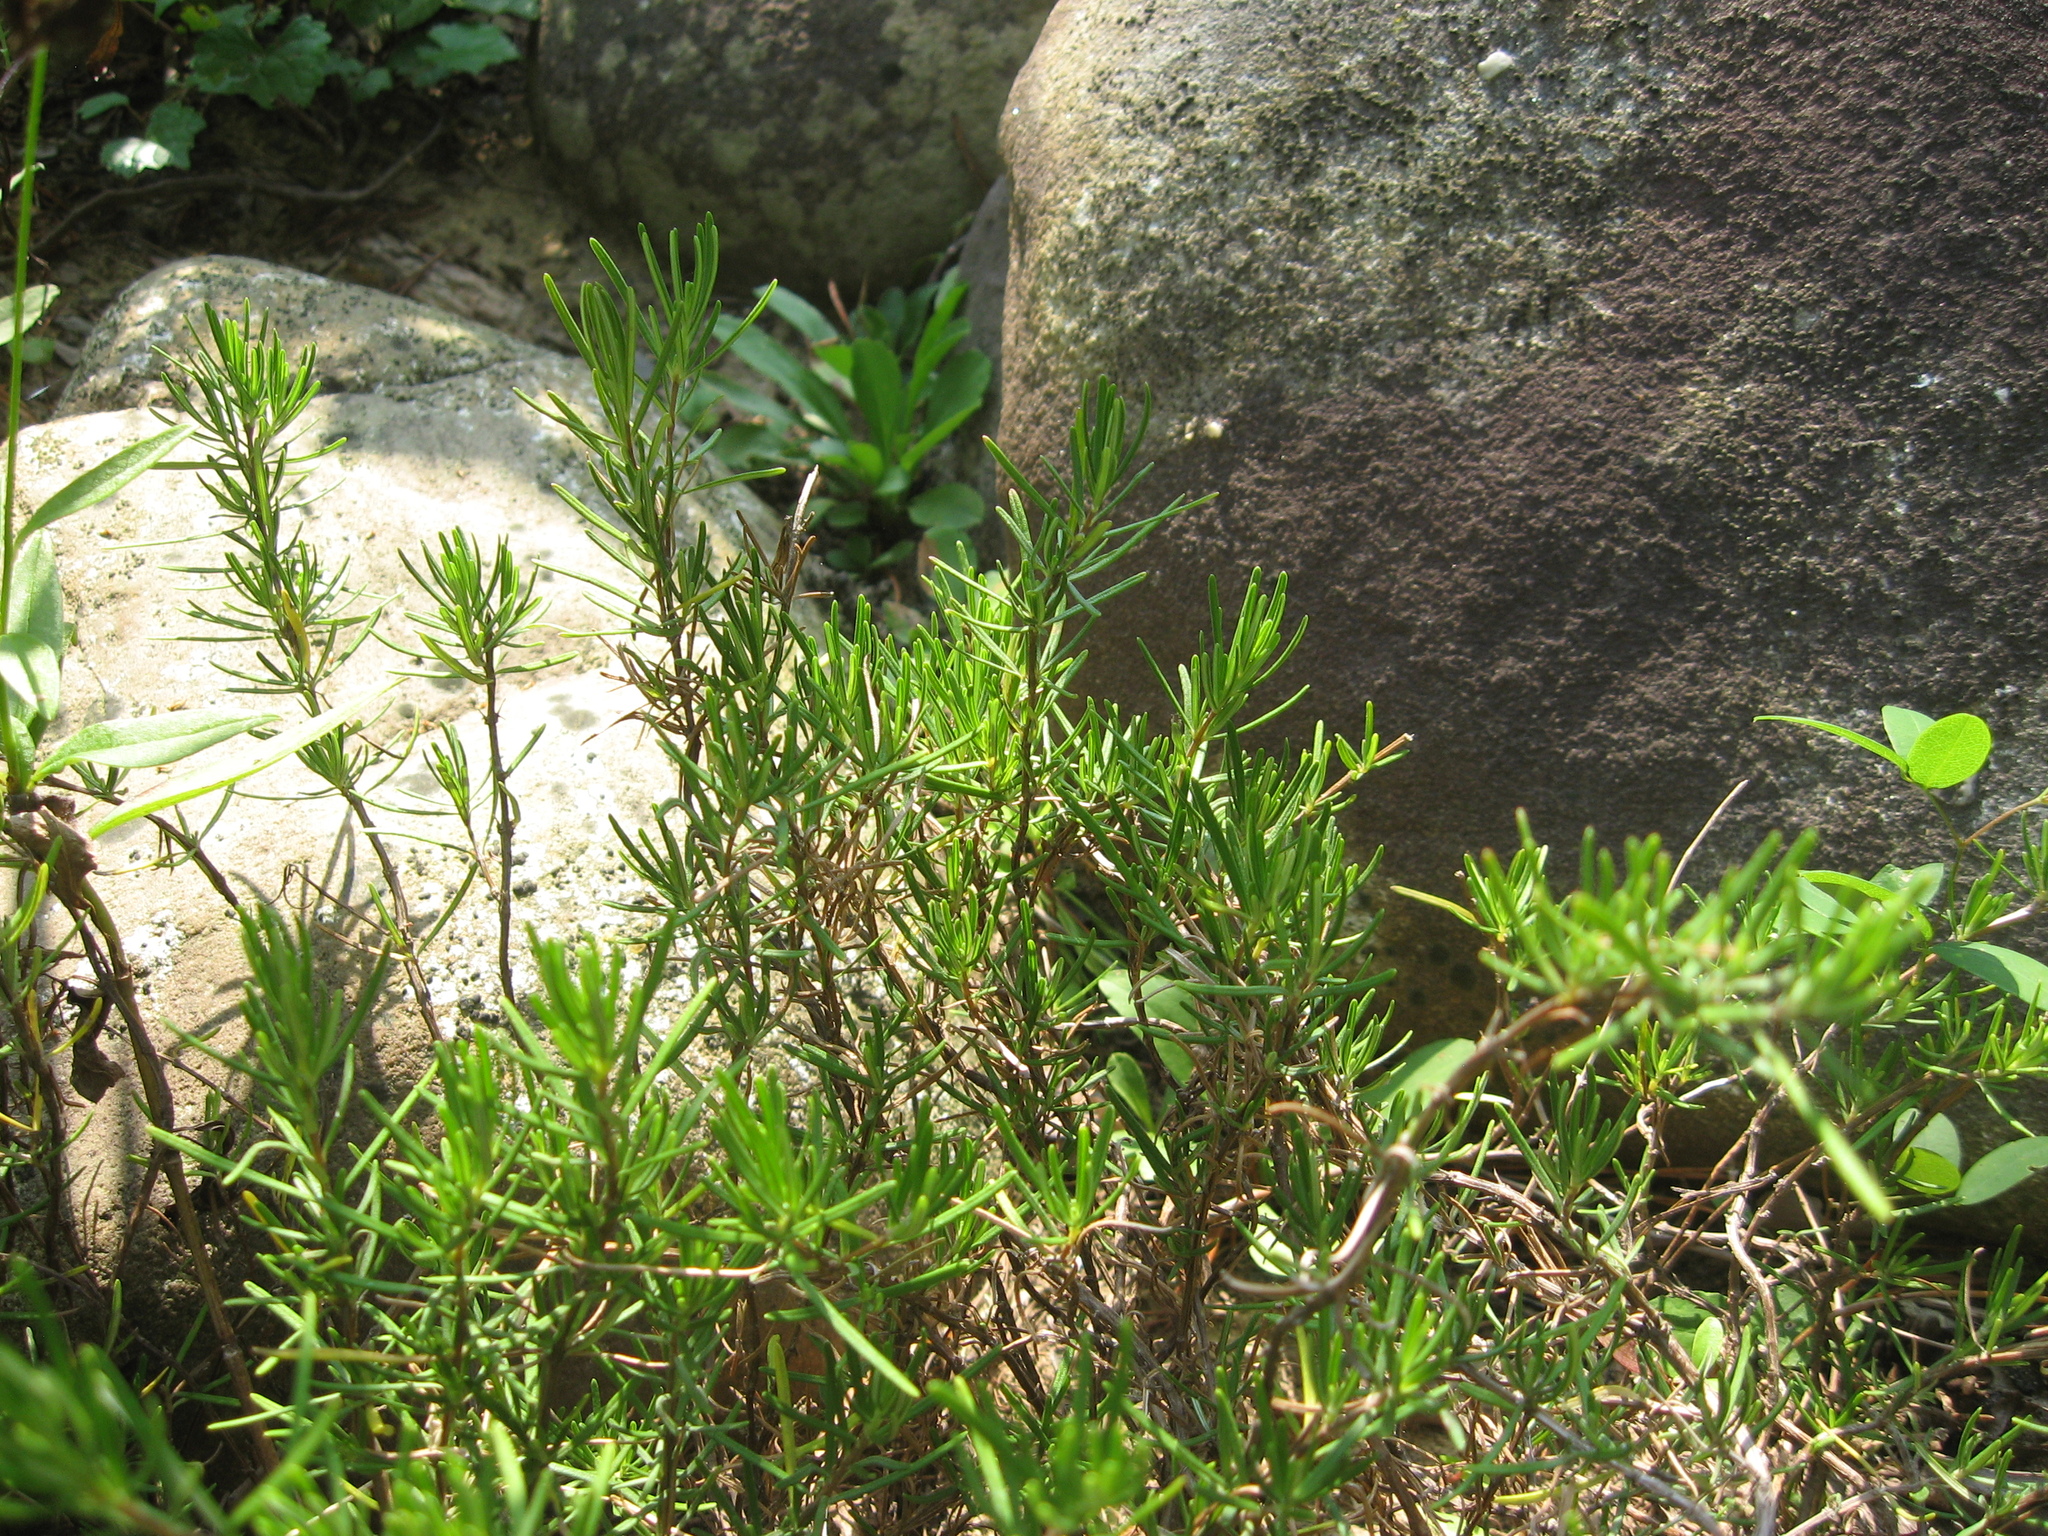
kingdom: Plantae
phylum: Tracheophyta
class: Magnoliopsida
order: Lamiales
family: Lamiaceae
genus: Conradina
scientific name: Conradina verticillata
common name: Cumberland-rosemary
